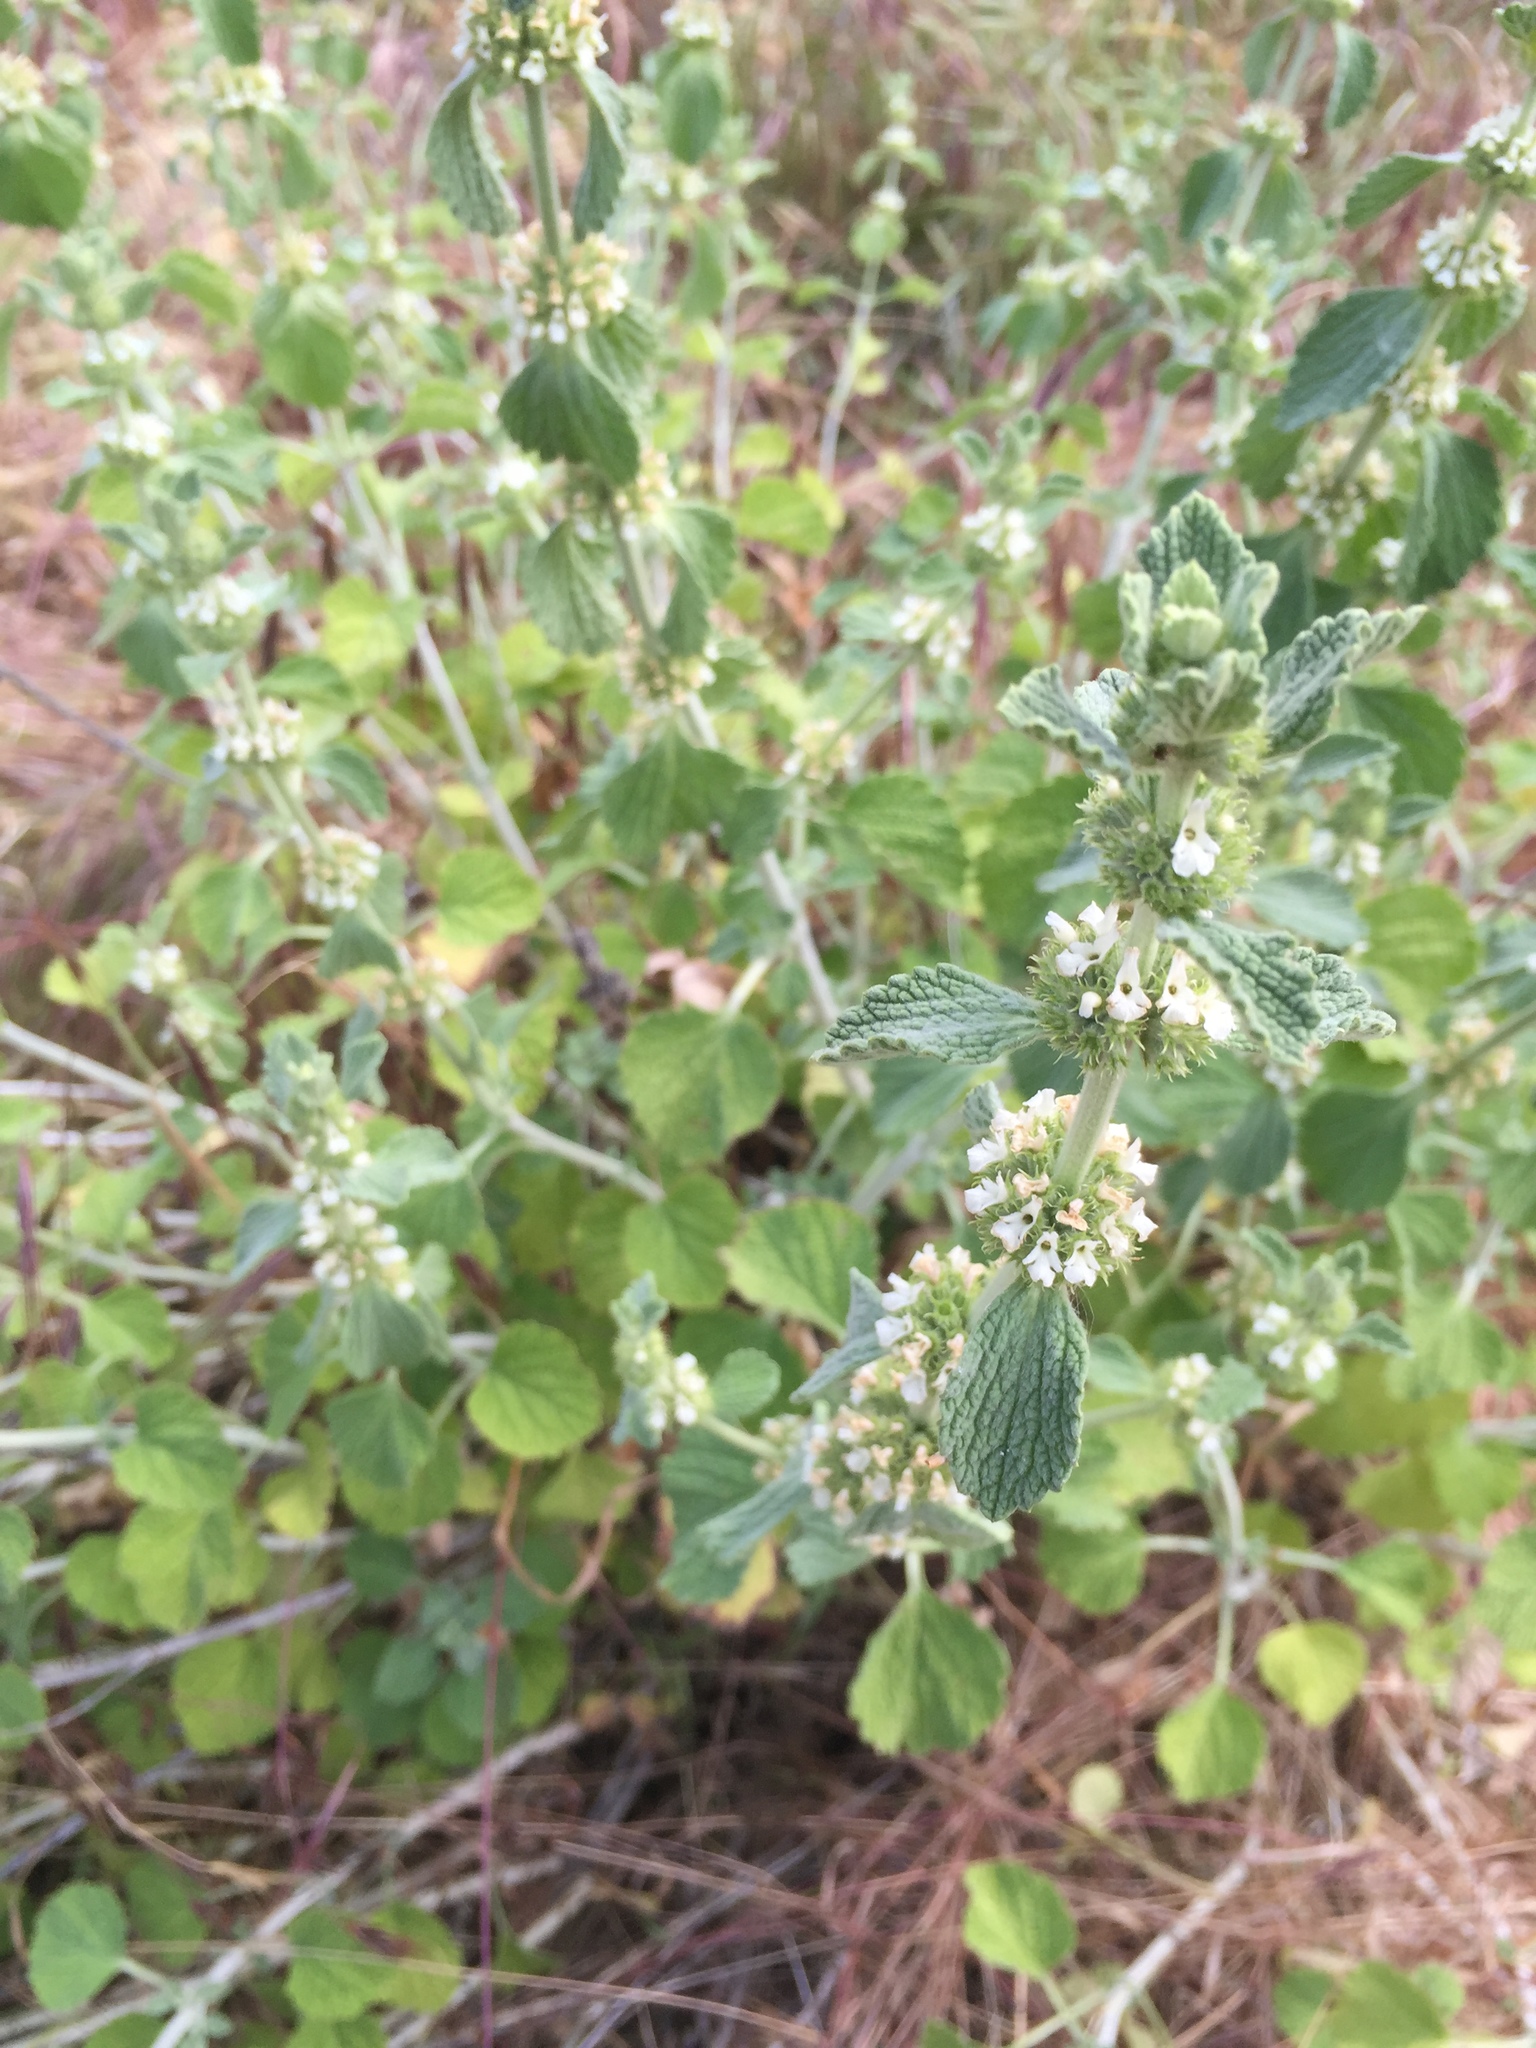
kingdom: Plantae
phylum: Tracheophyta
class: Magnoliopsida
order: Lamiales
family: Lamiaceae
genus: Marrubium
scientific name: Marrubium vulgare
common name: Horehound
